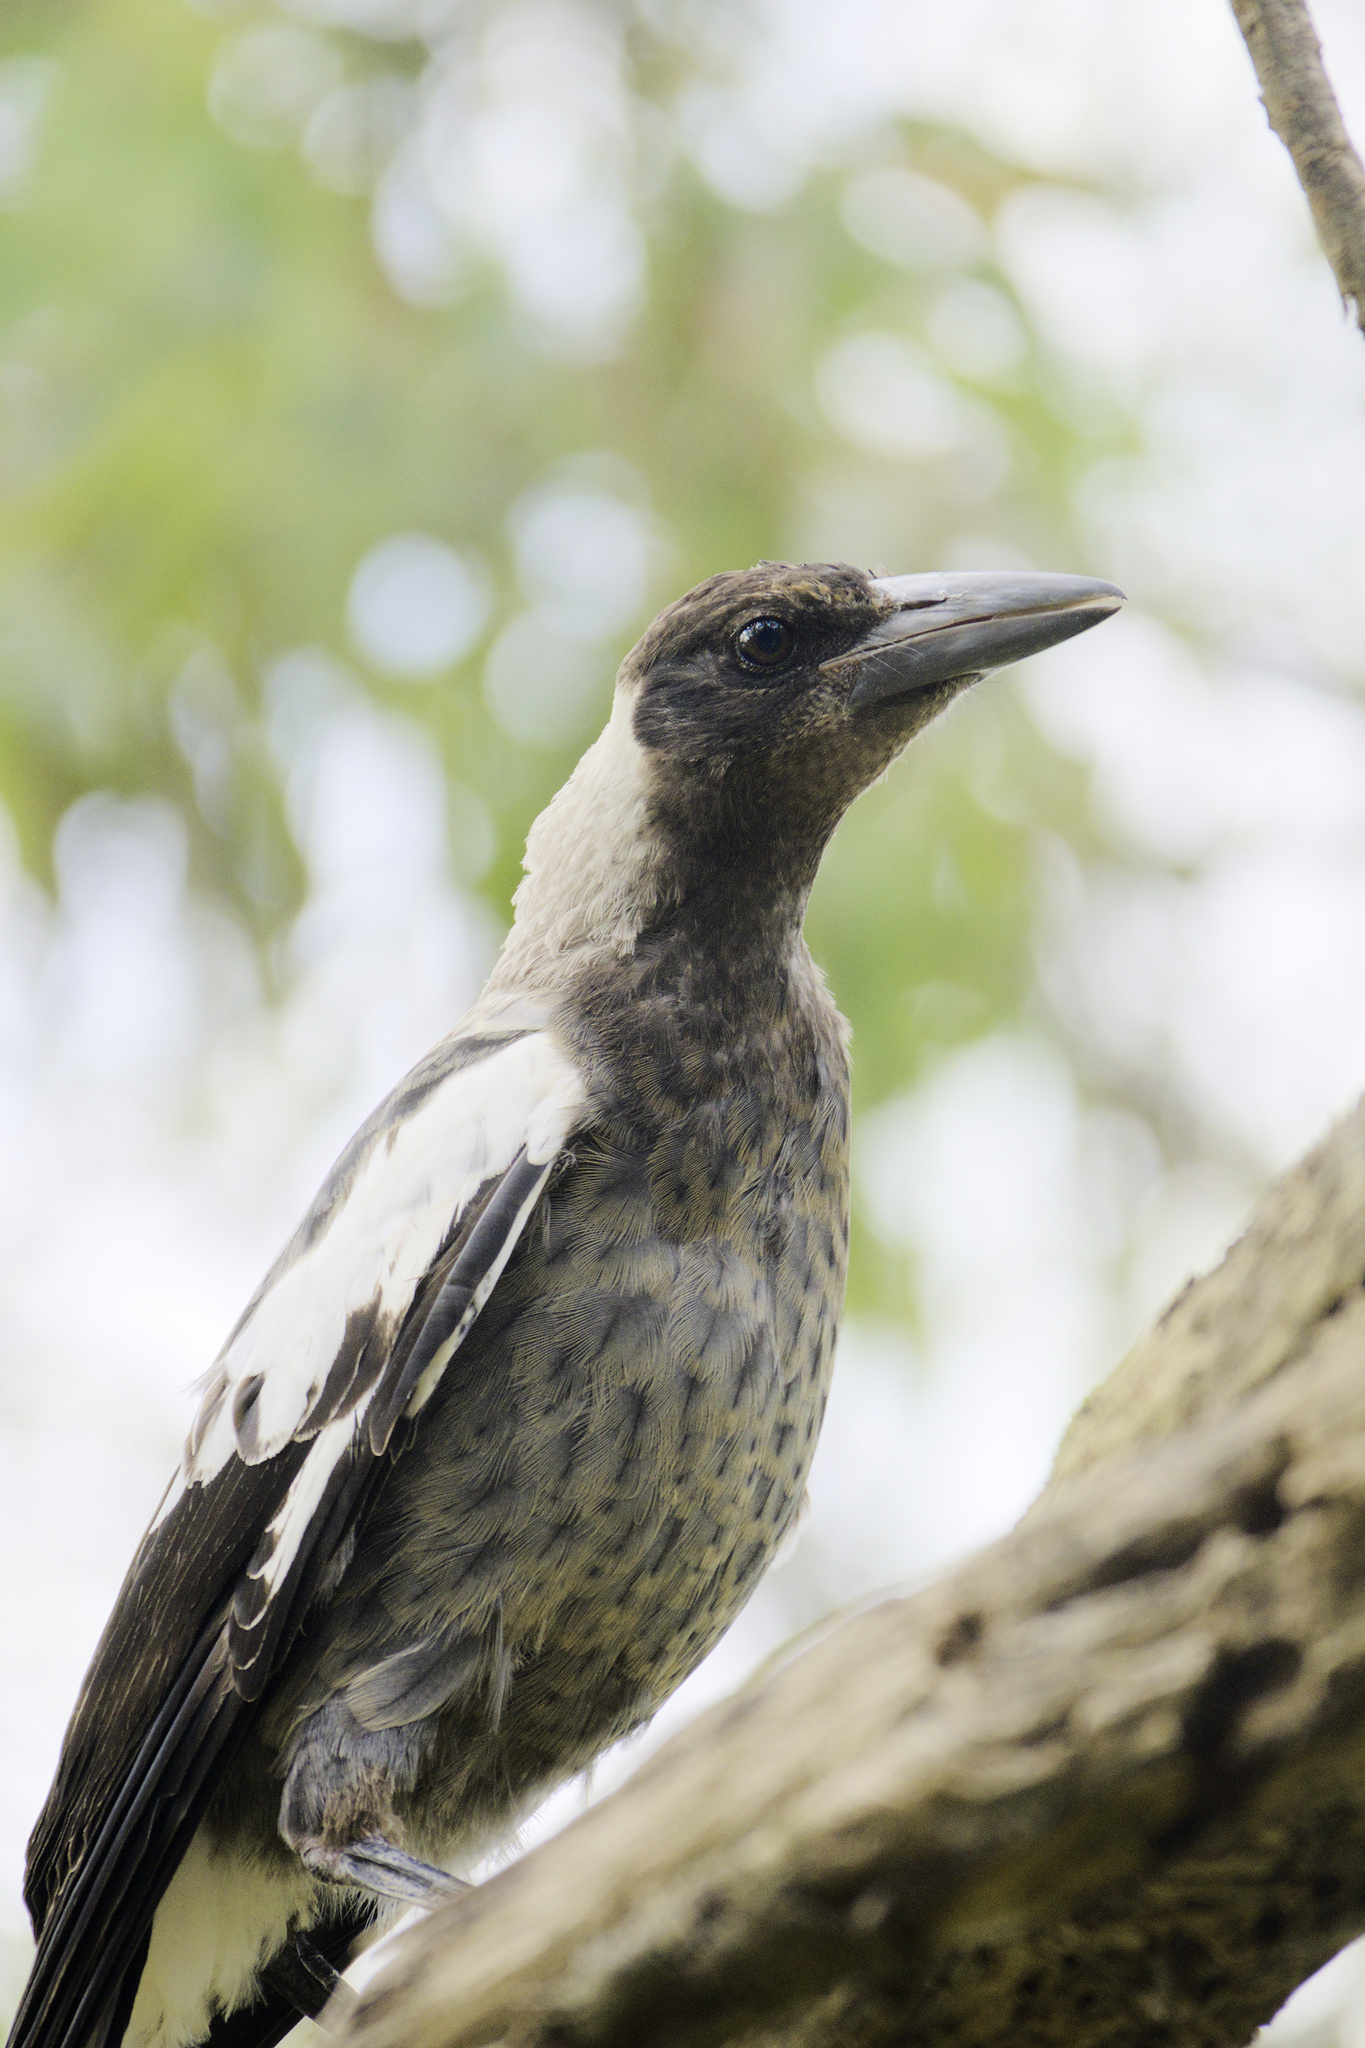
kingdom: Animalia
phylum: Chordata
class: Aves
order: Passeriformes
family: Cracticidae
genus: Gymnorhina
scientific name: Gymnorhina tibicen
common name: Australian magpie
